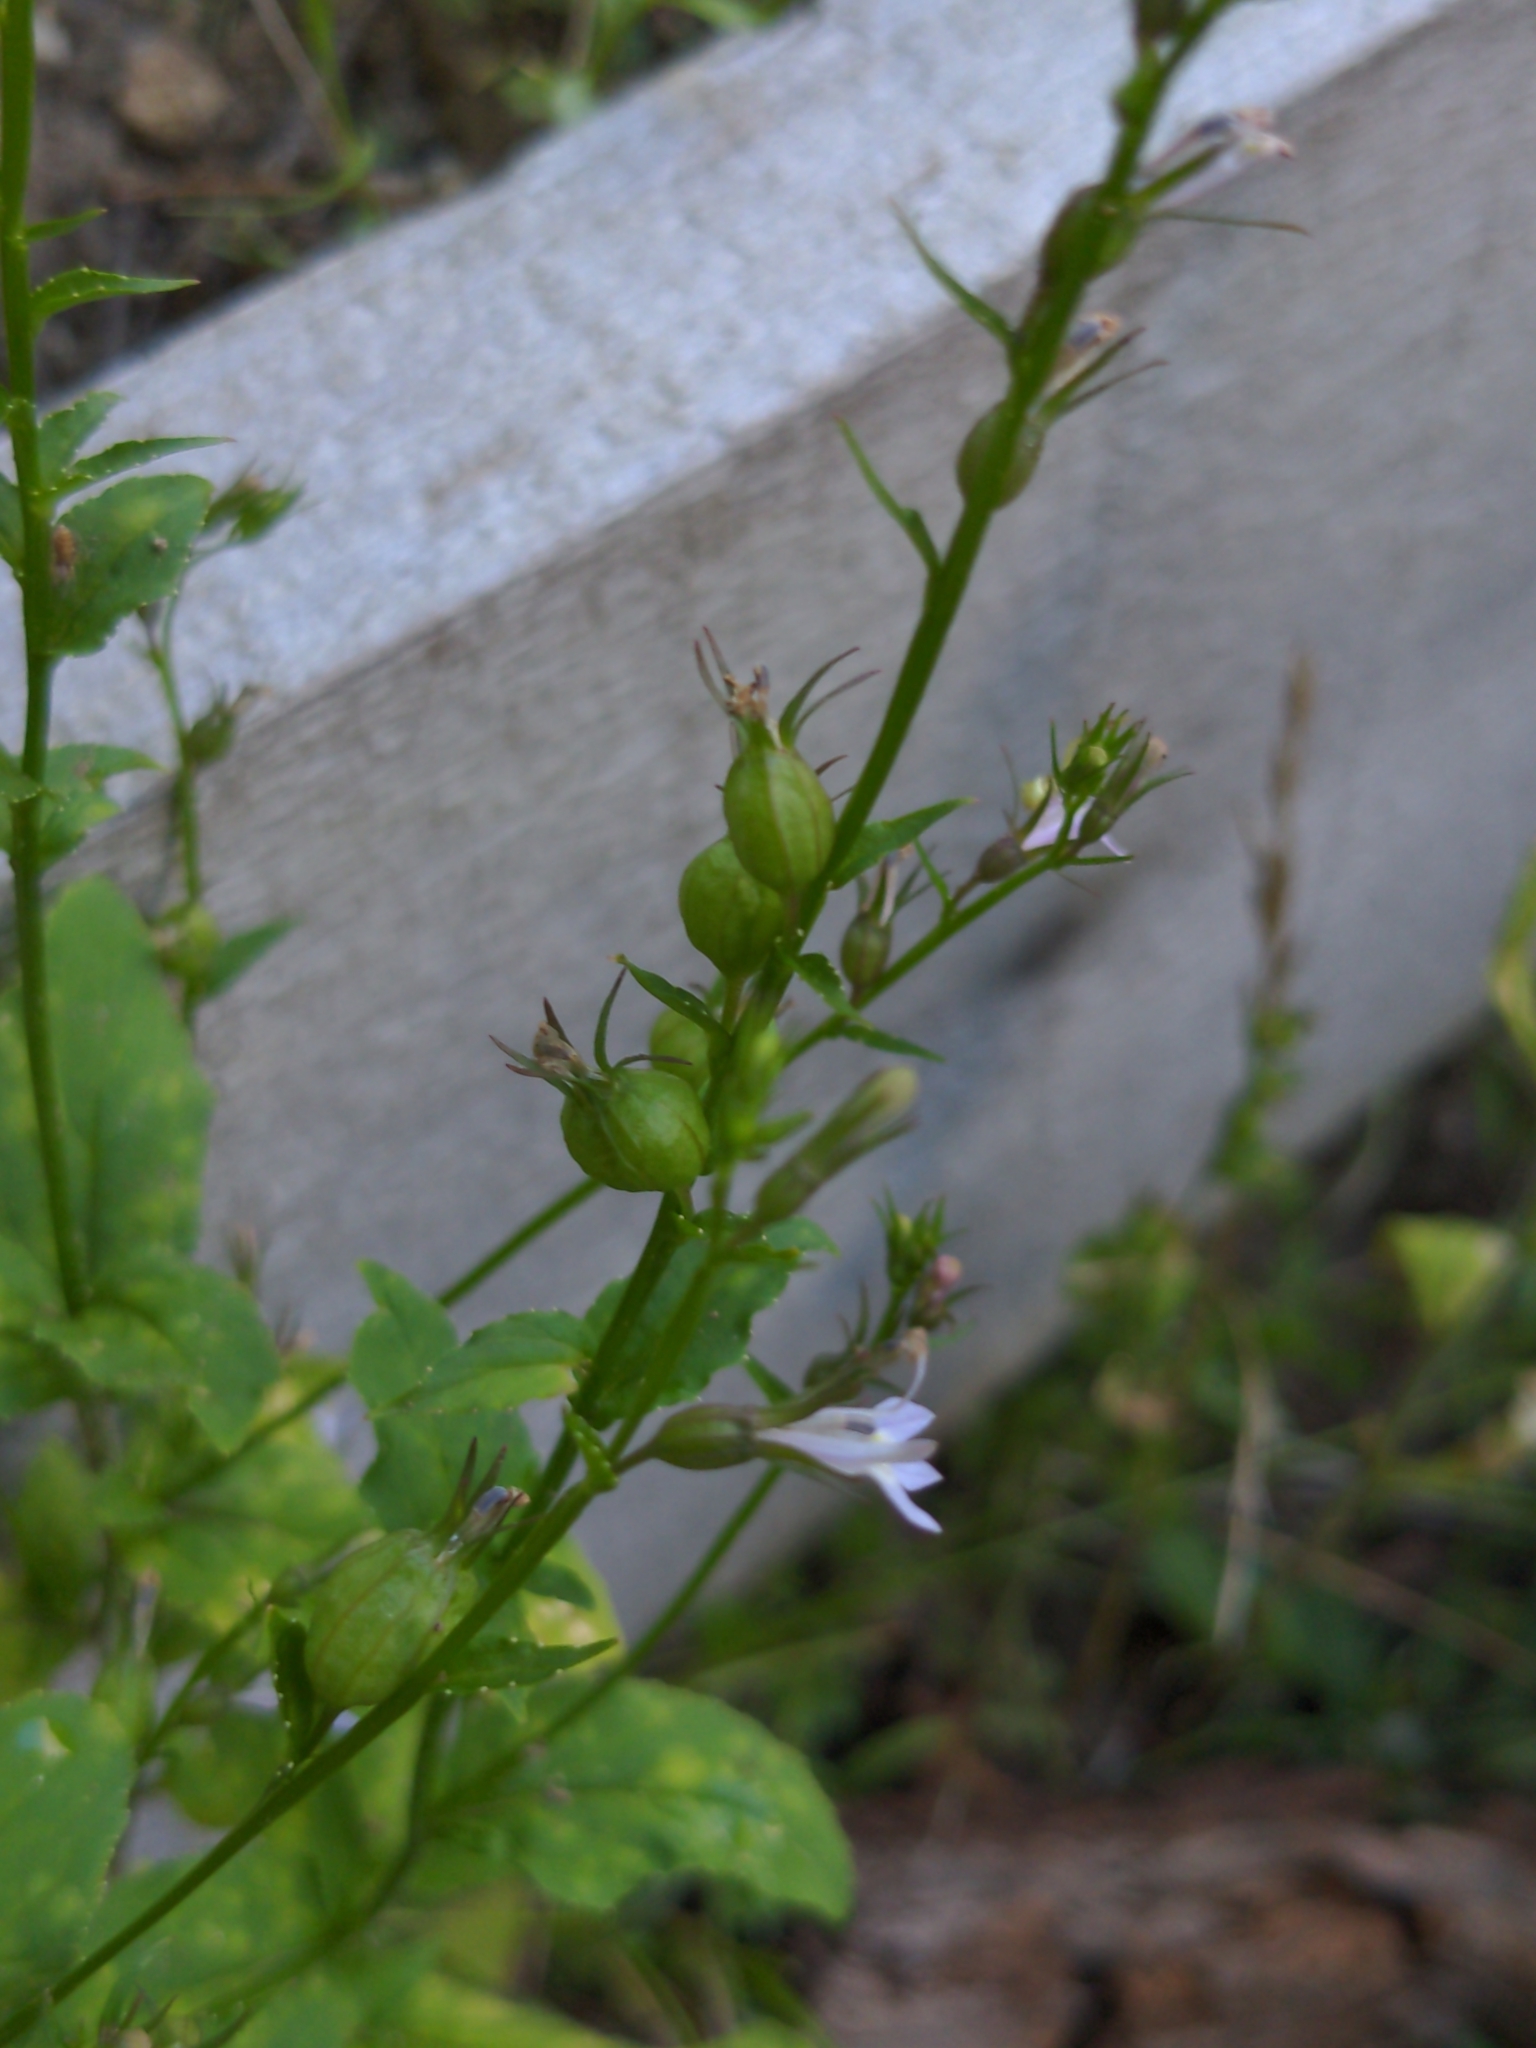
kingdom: Plantae
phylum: Tracheophyta
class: Magnoliopsida
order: Asterales
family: Campanulaceae
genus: Lobelia
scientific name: Lobelia inflata
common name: Indian tobacco
